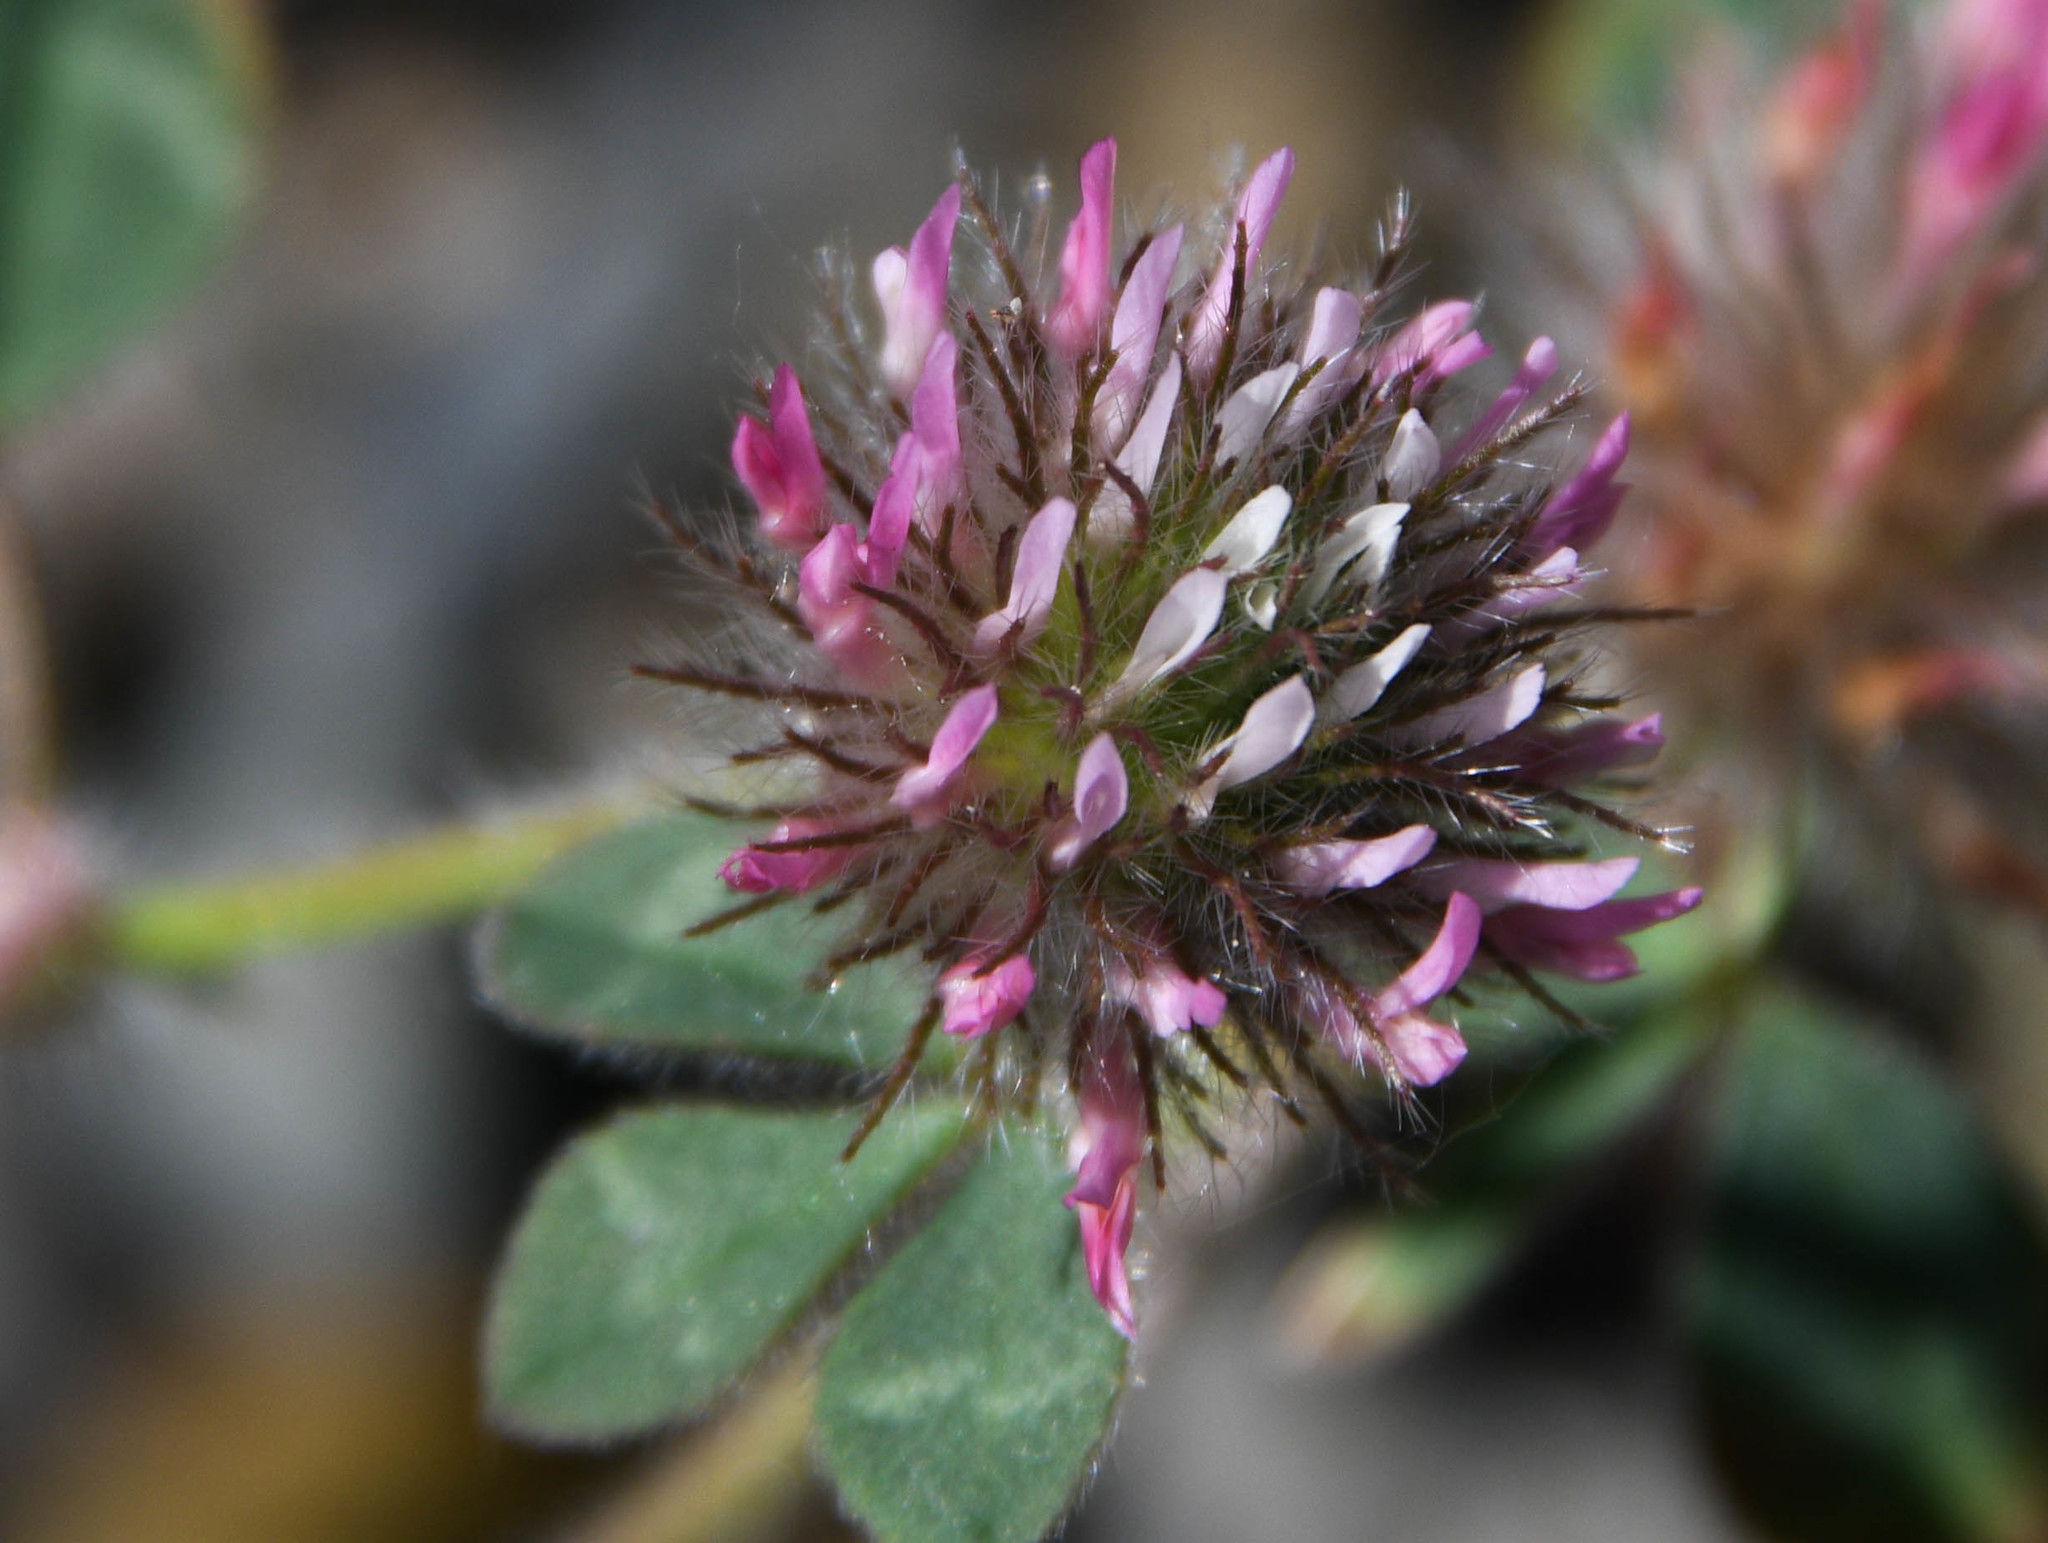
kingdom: Plantae
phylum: Tracheophyta
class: Magnoliopsida
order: Fabales
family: Fabaceae
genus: Trifolium
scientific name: Trifolium hirtum
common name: Rose clover
